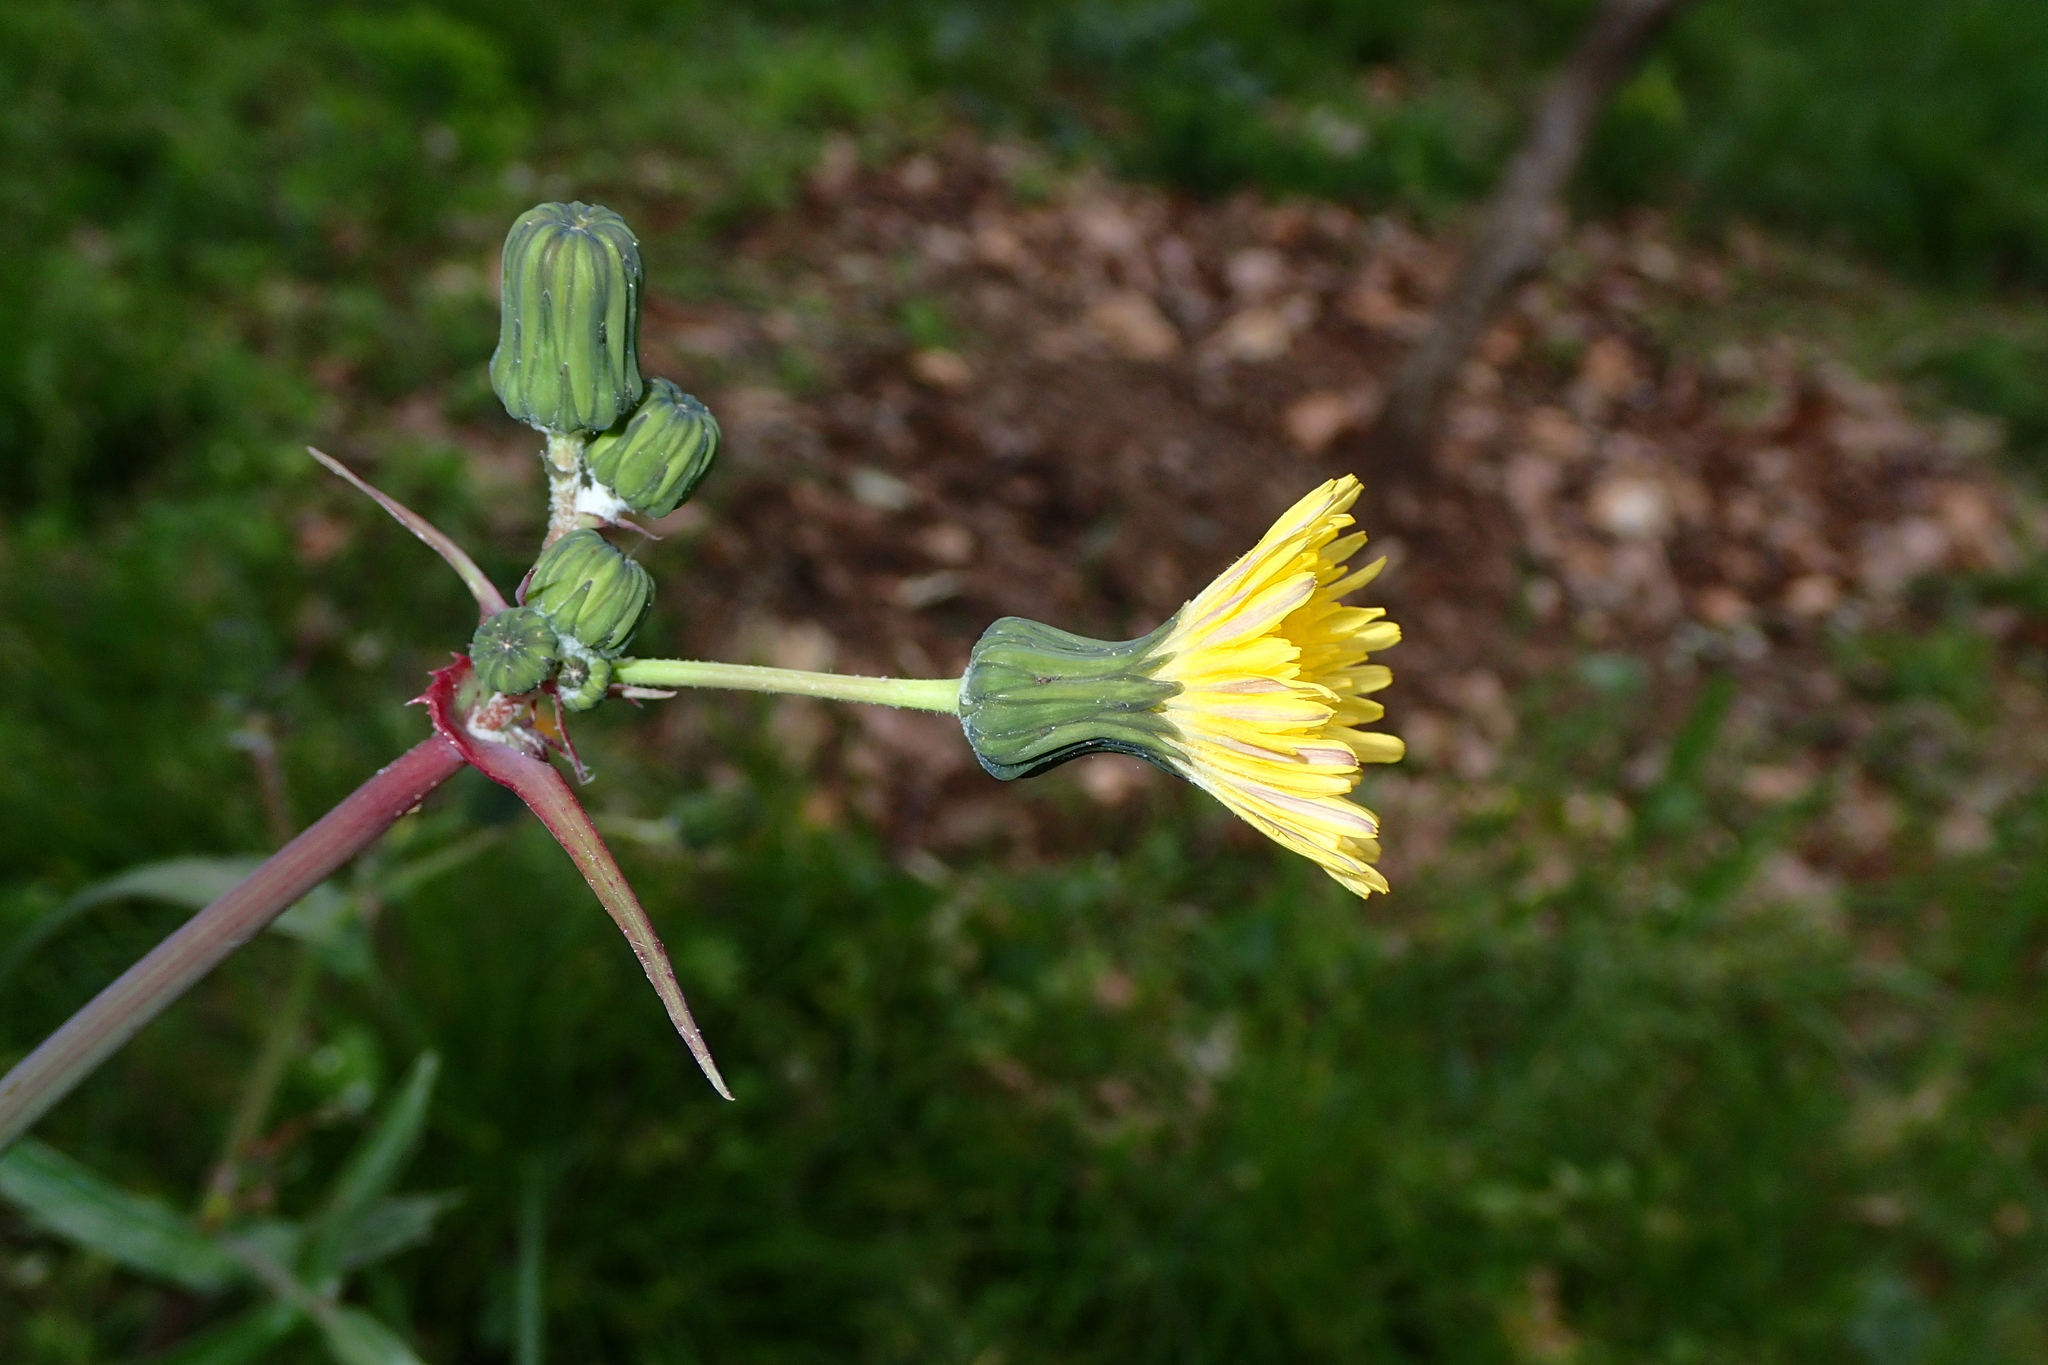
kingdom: Plantae
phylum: Tracheophyta
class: Magnoliopsida
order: Asterales
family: Asteraceae
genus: Sonchus
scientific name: Sonchus oleraceus
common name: Common sowthistle
